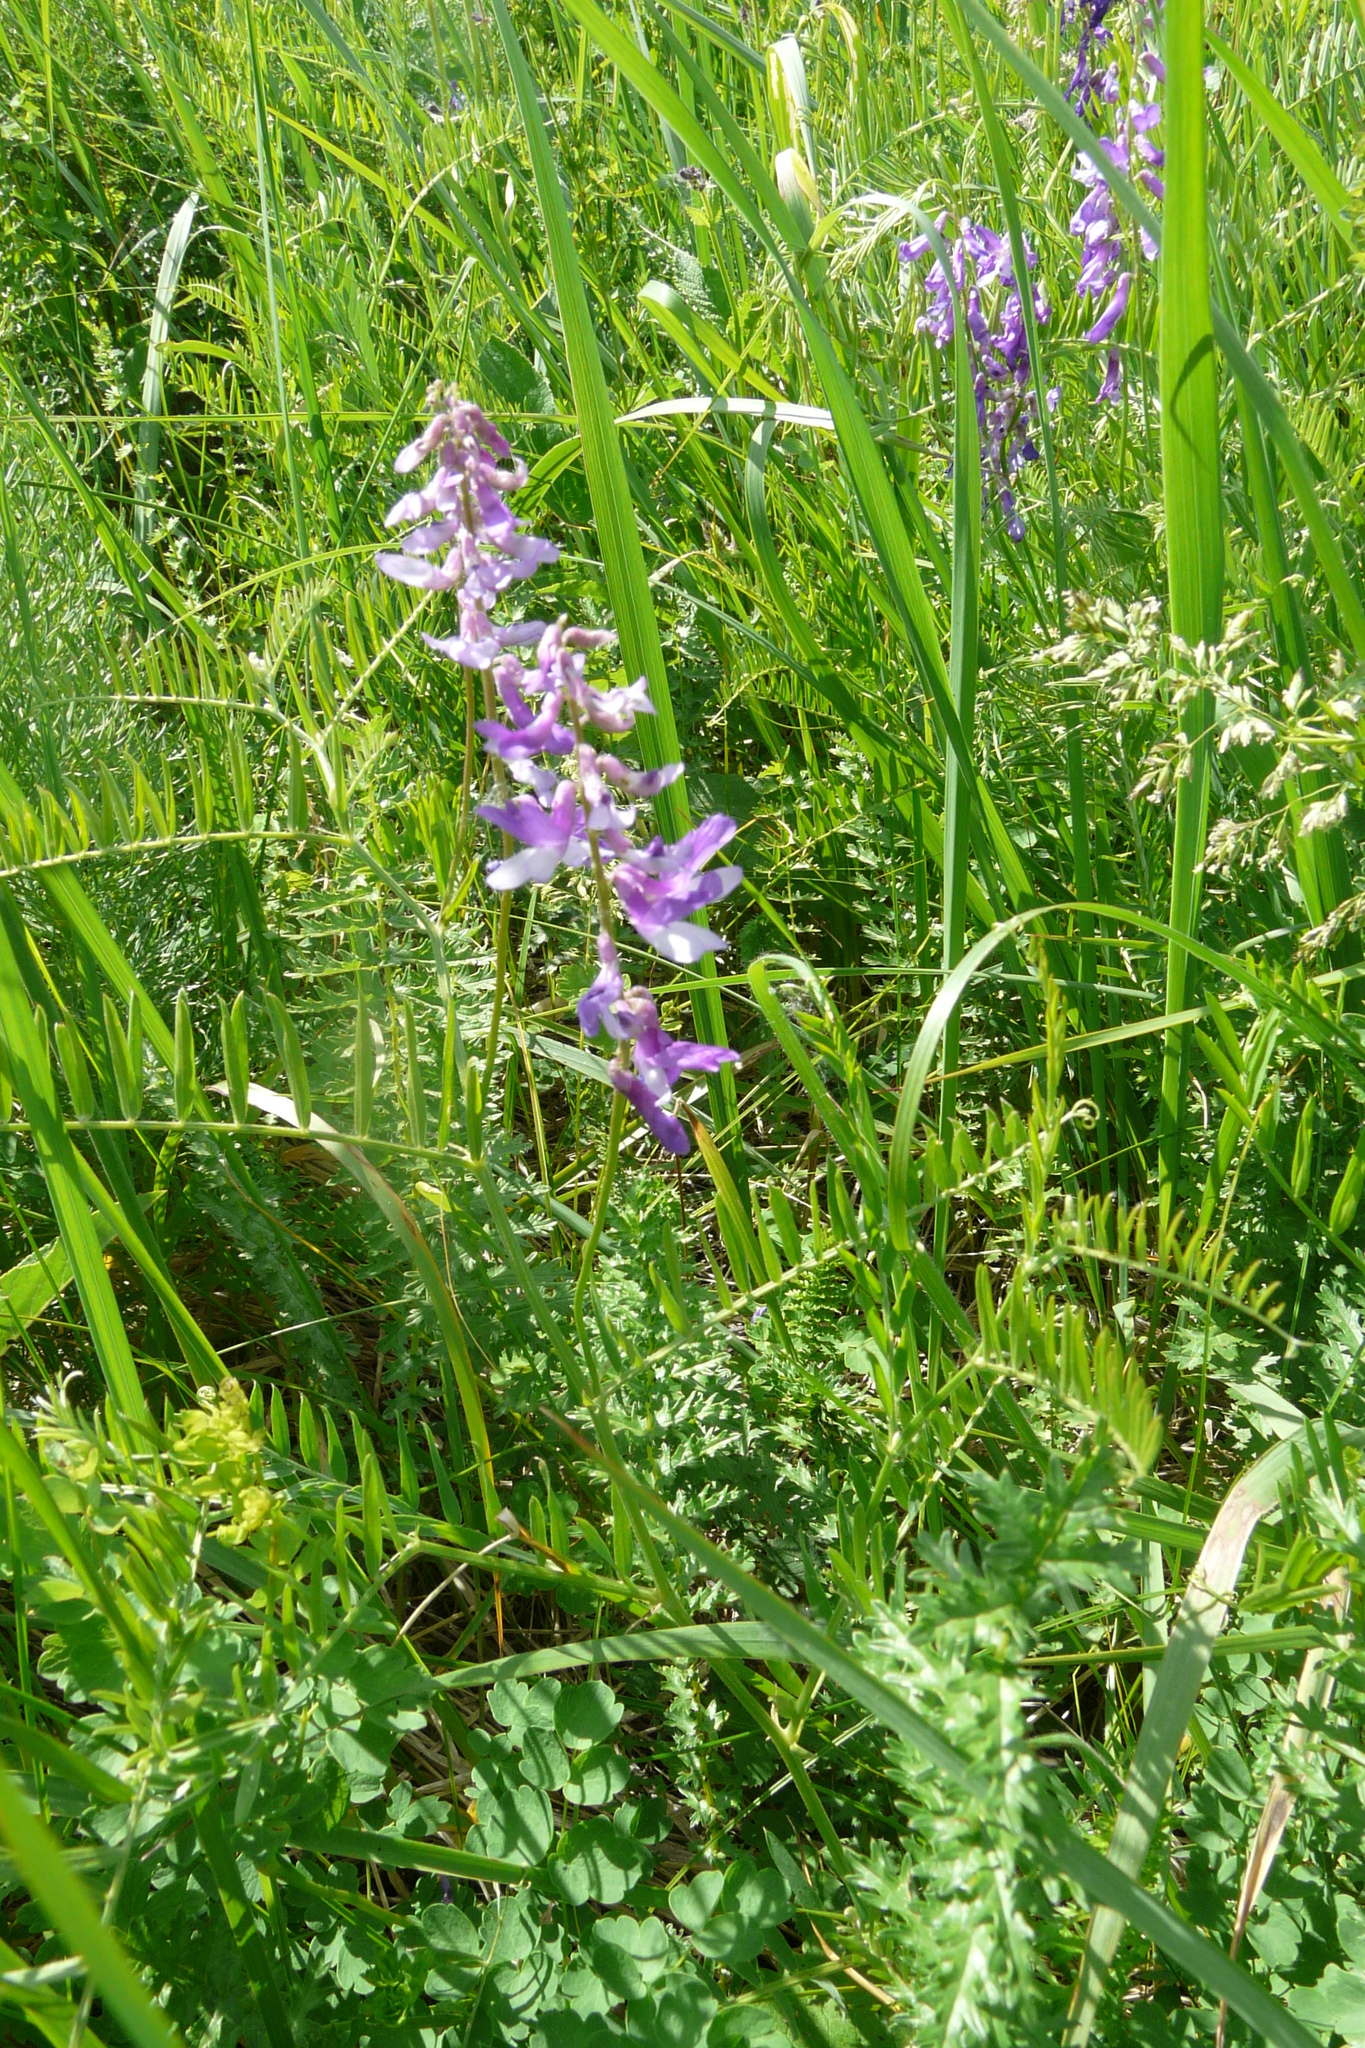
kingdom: Plantae
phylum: Tracheophyta
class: Magnoliopsida
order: Fabales
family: Fabaceae
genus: Vicia
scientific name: Vicia tenuifolia
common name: Fine-leaved vetch
